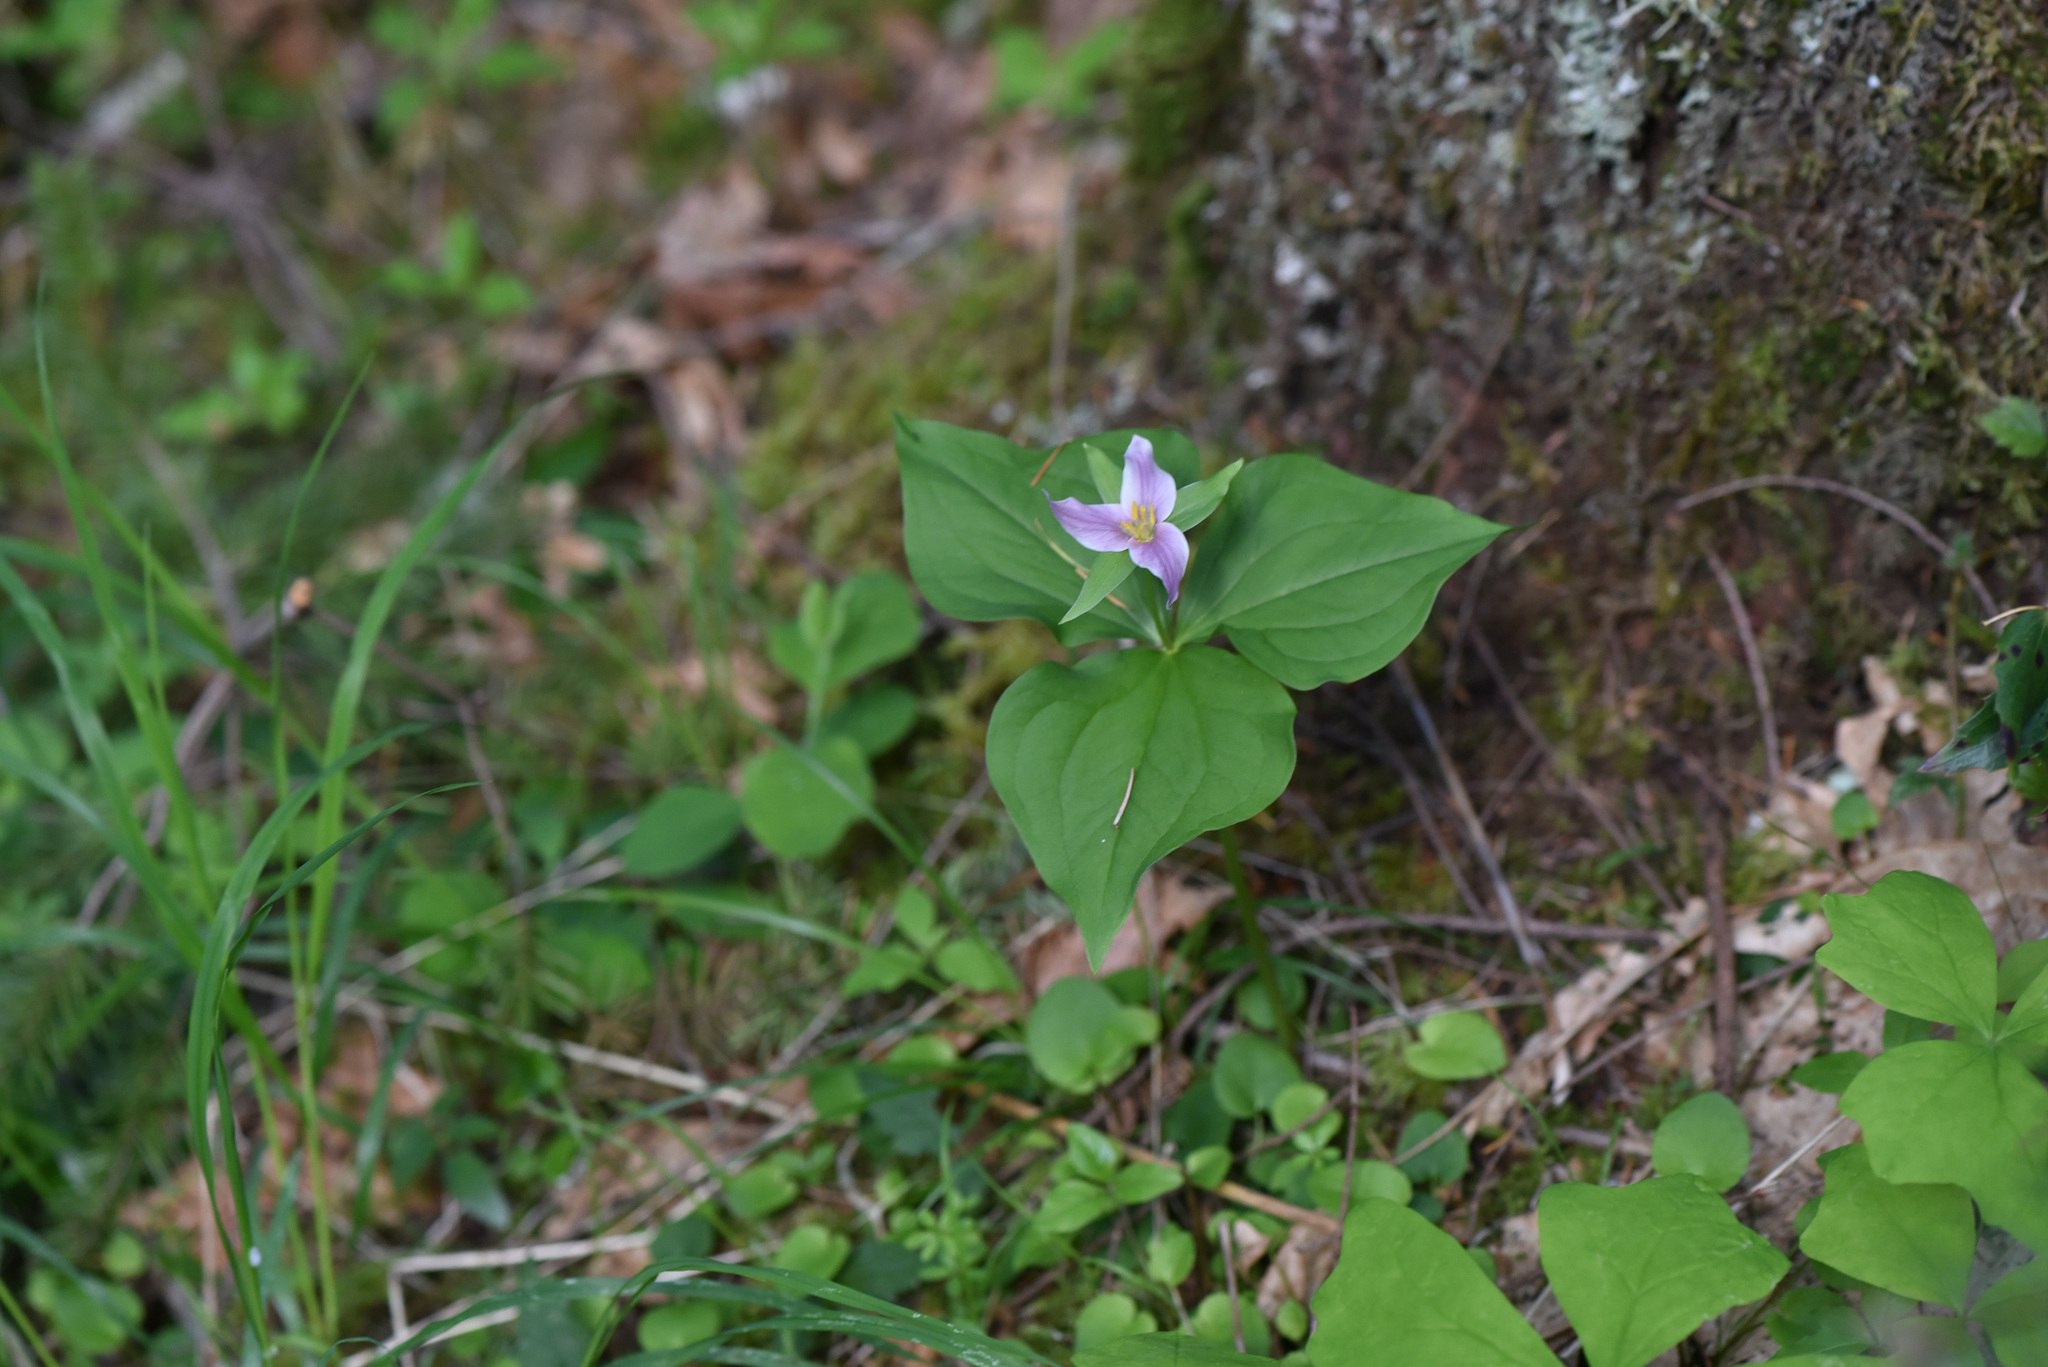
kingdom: Plantae
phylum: Tracheophyta
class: Liliopsida
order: Liliales
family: Melanthiaceae
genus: Trillium
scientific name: Trillium ovatum
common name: Pacific trillium
